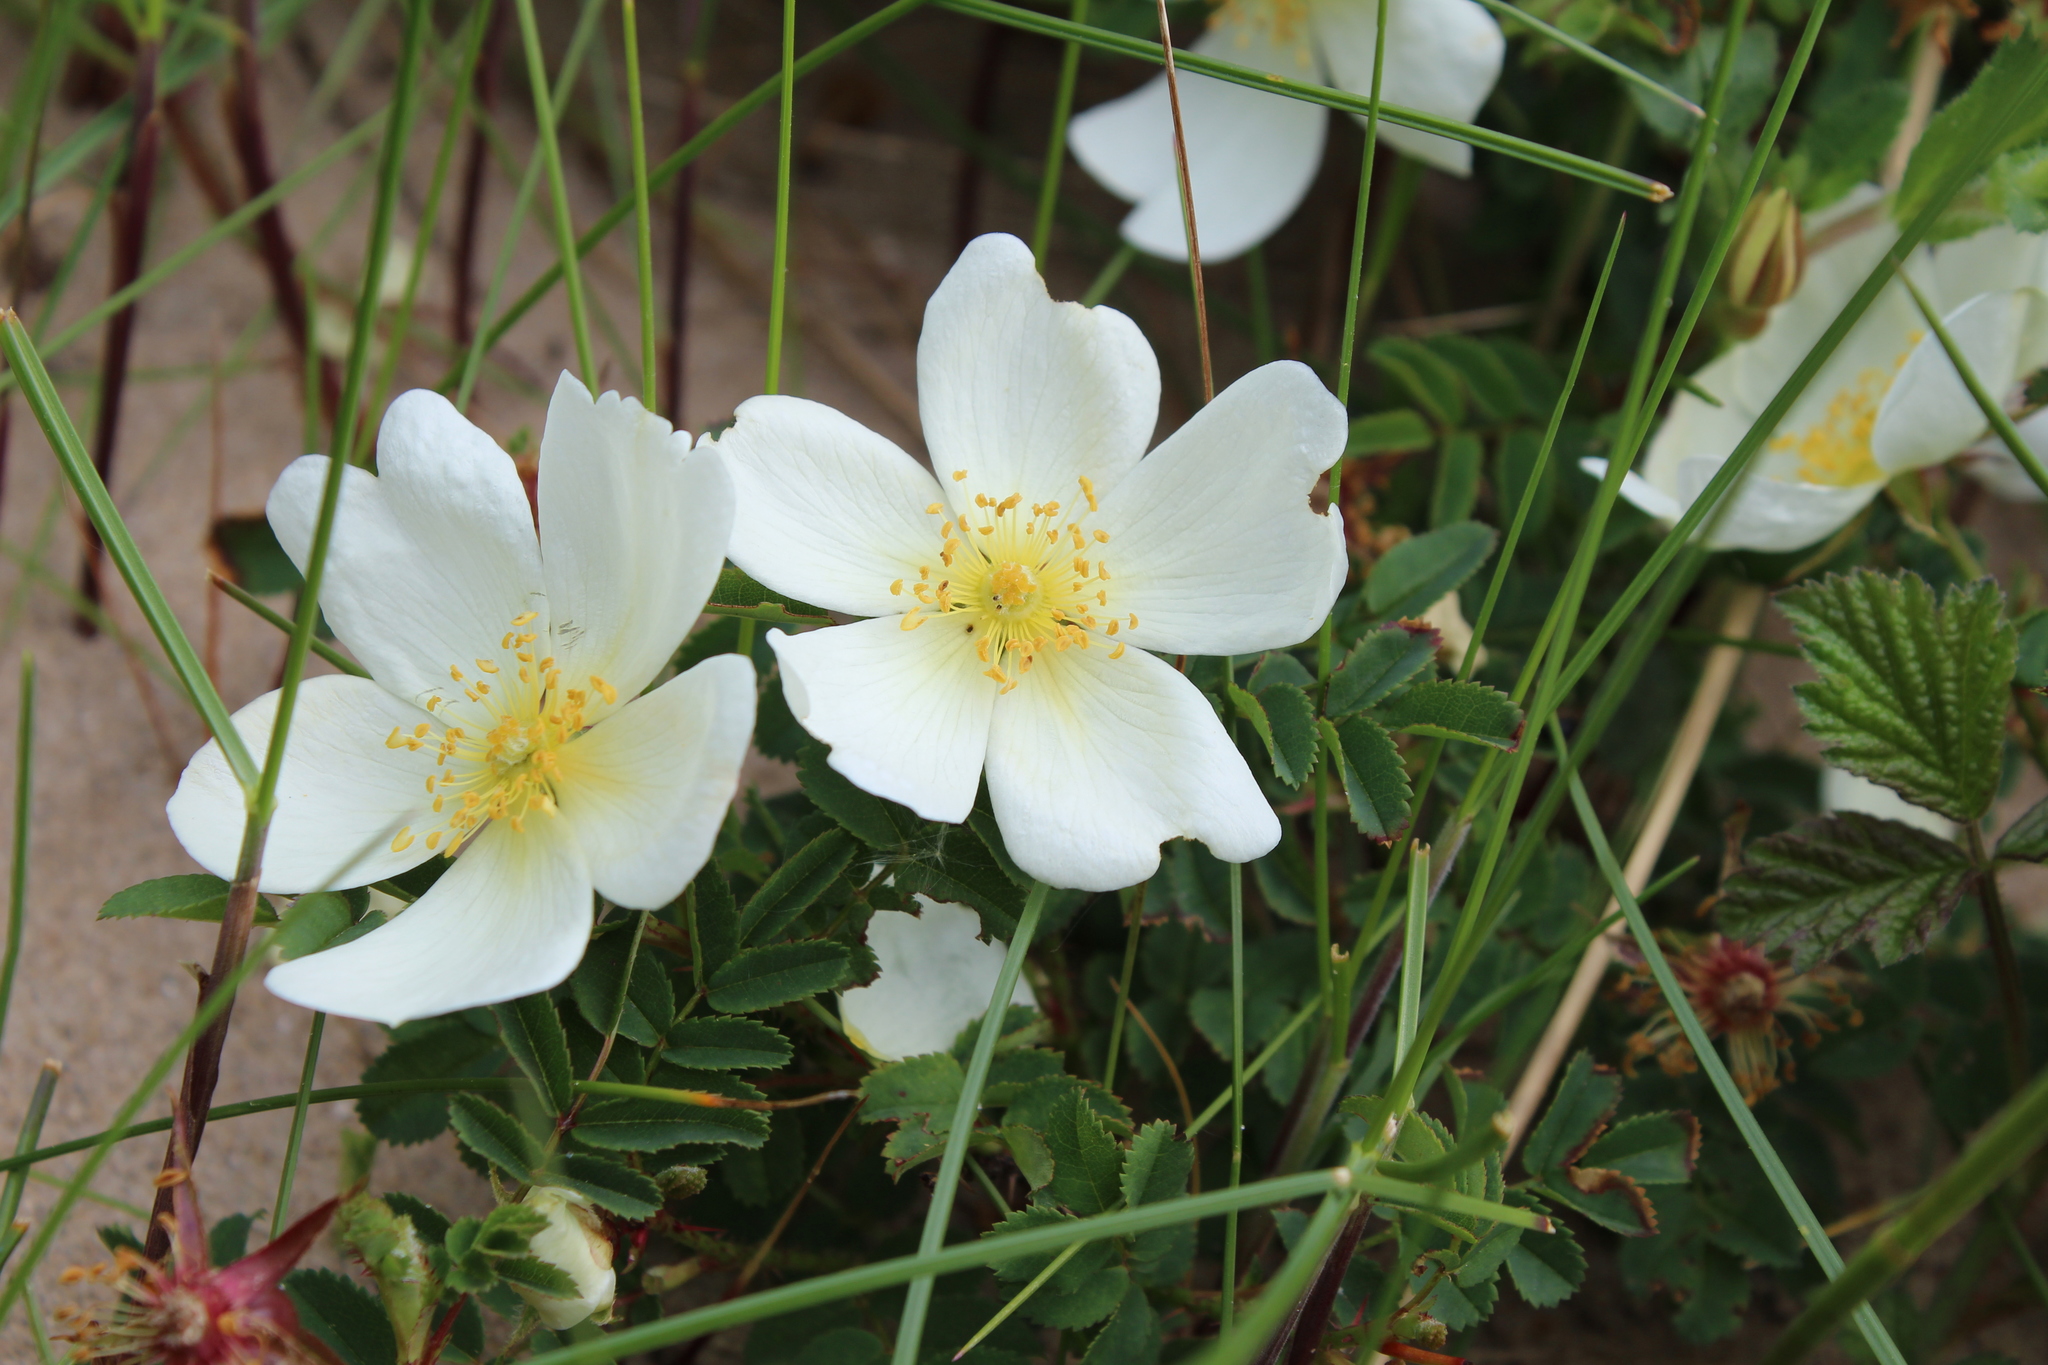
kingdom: Plantae
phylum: Tracheophyta
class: Magnoliopsida
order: Rosales
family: Rosaceae
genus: Rosa
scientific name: Rosa spinosissima
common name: Burnet rose
